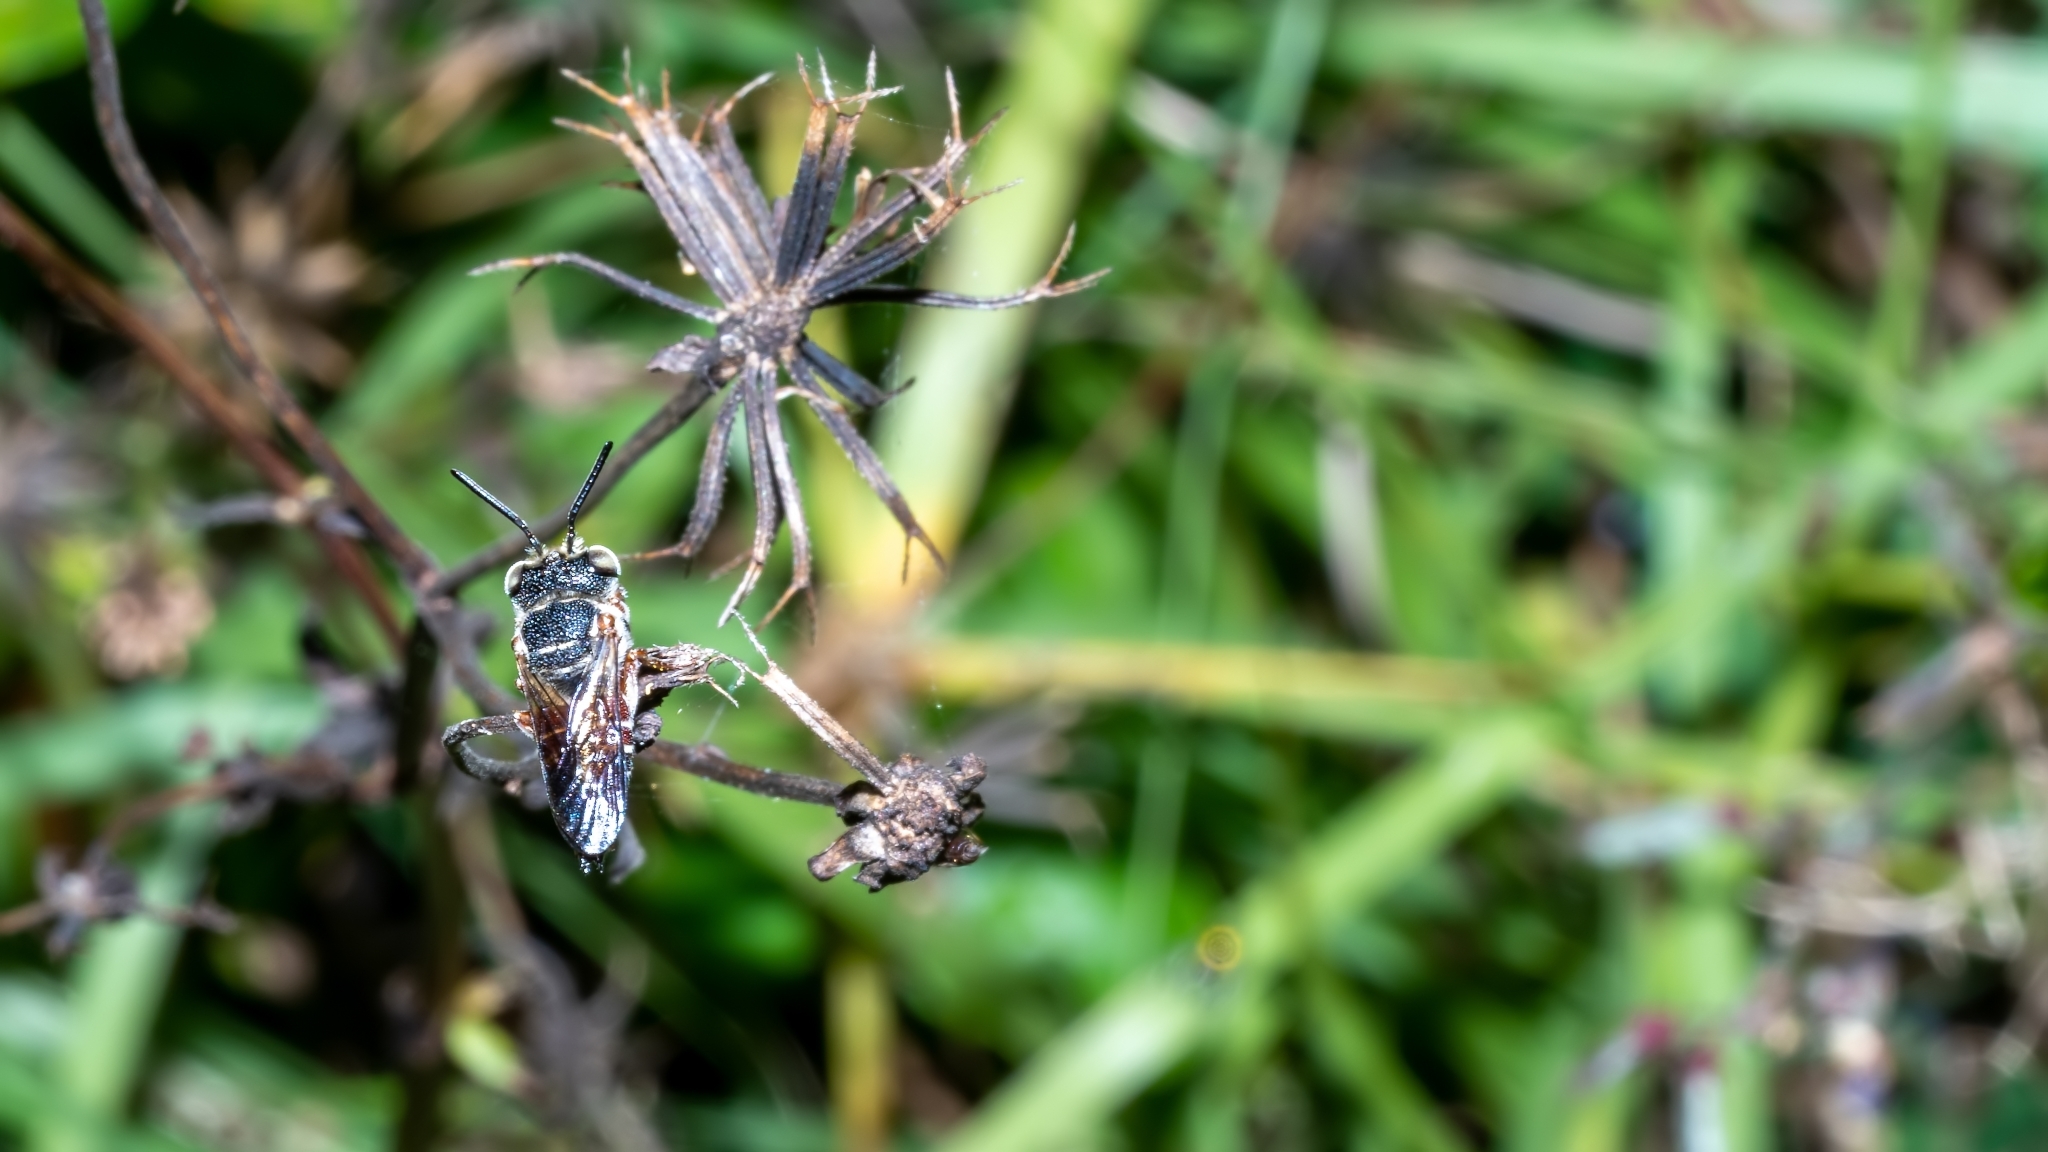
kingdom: Animalia
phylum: Arthropoda
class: Insecta
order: Hymenoptera
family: Megachilidae
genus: Coelioxys
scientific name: Coelioxys slossoni
